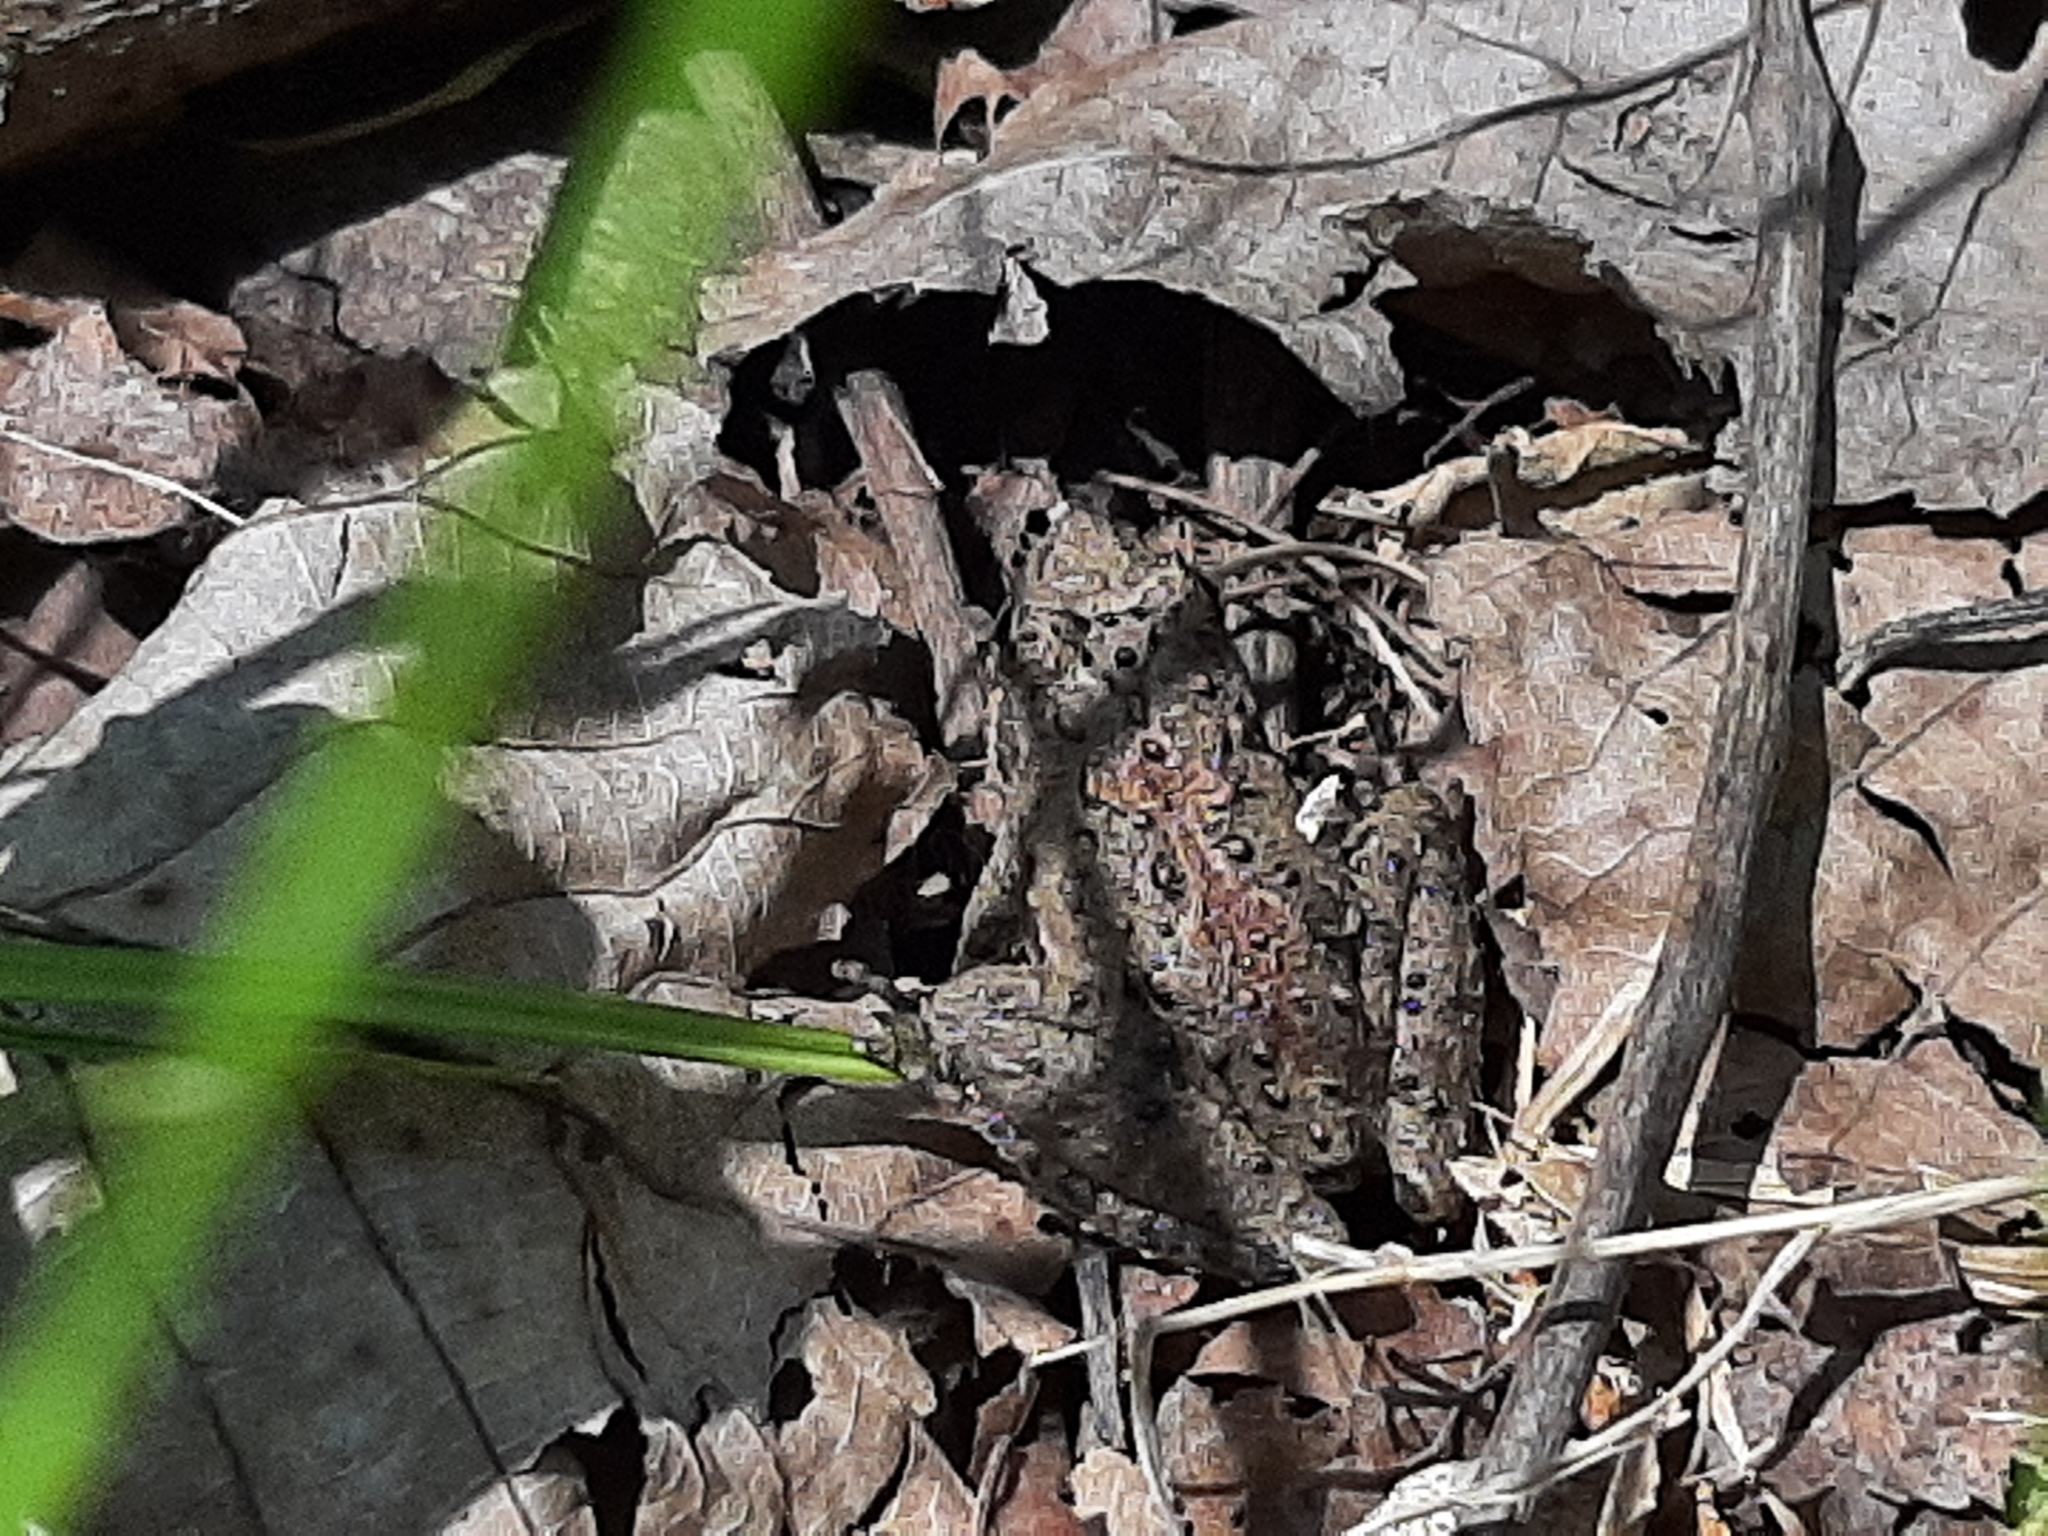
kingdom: Animalia
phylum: Chordata
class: Amphibia
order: Anura
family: Hylidae
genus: Acris
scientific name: Acris blanchardi
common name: Blanchard's cricket frog
